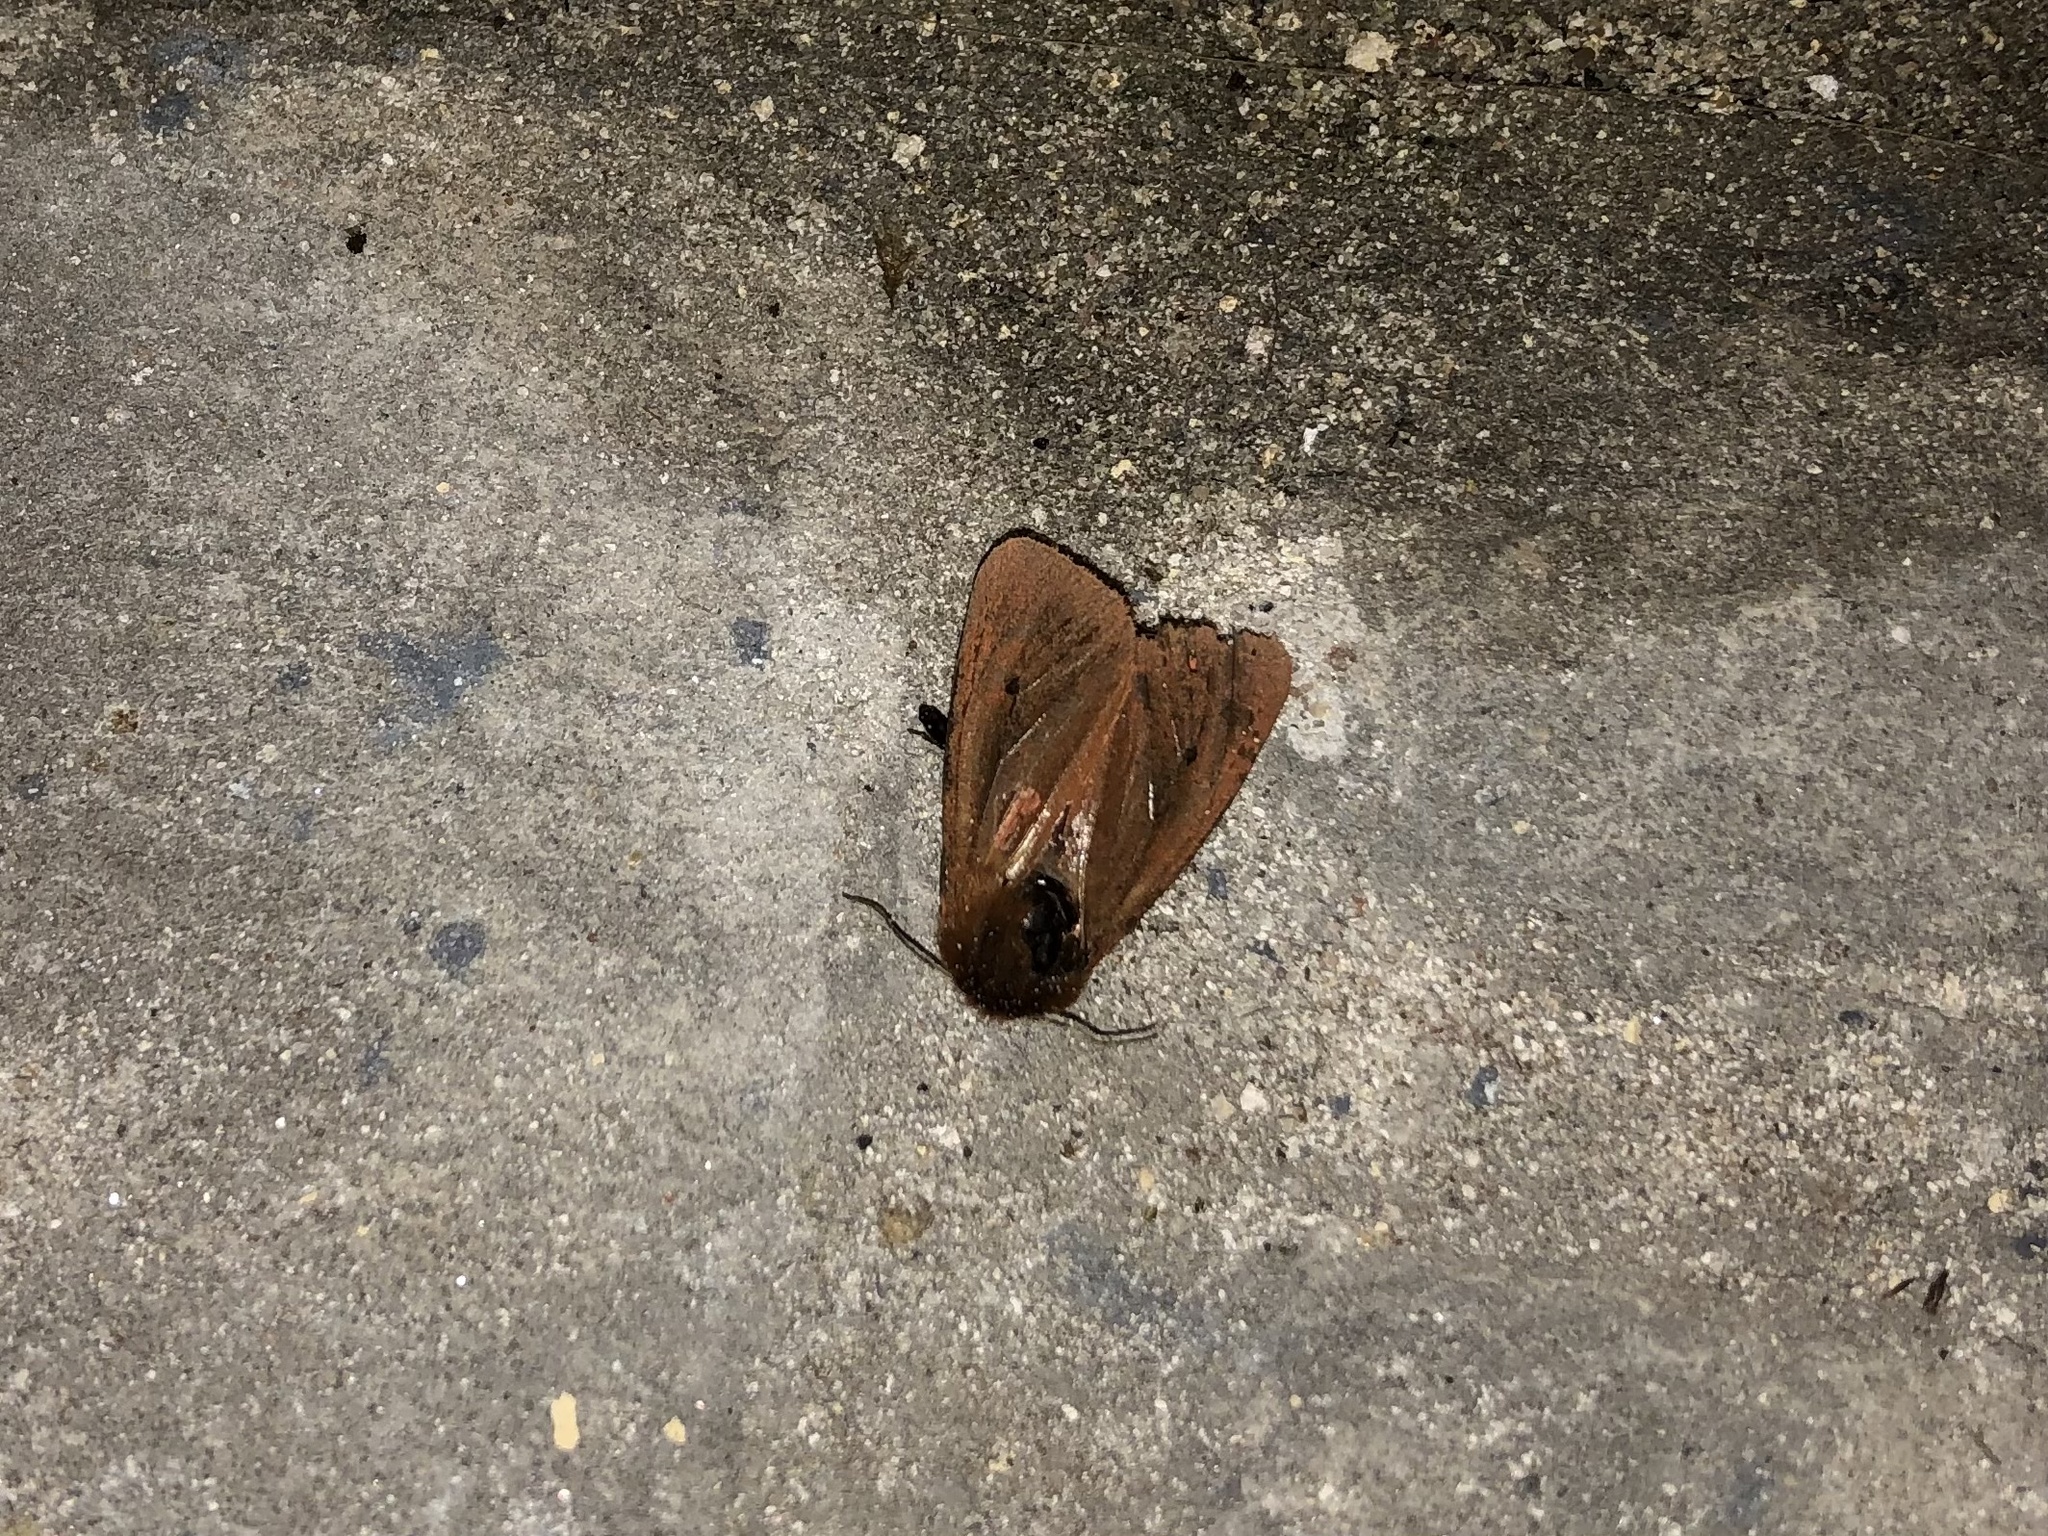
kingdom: Animalia
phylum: Arthropoda
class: Insecta
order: Lepidoptera
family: Erebidae
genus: Phragmatobia
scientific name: Phragmatobia fuliginosa
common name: Ruby tiger
